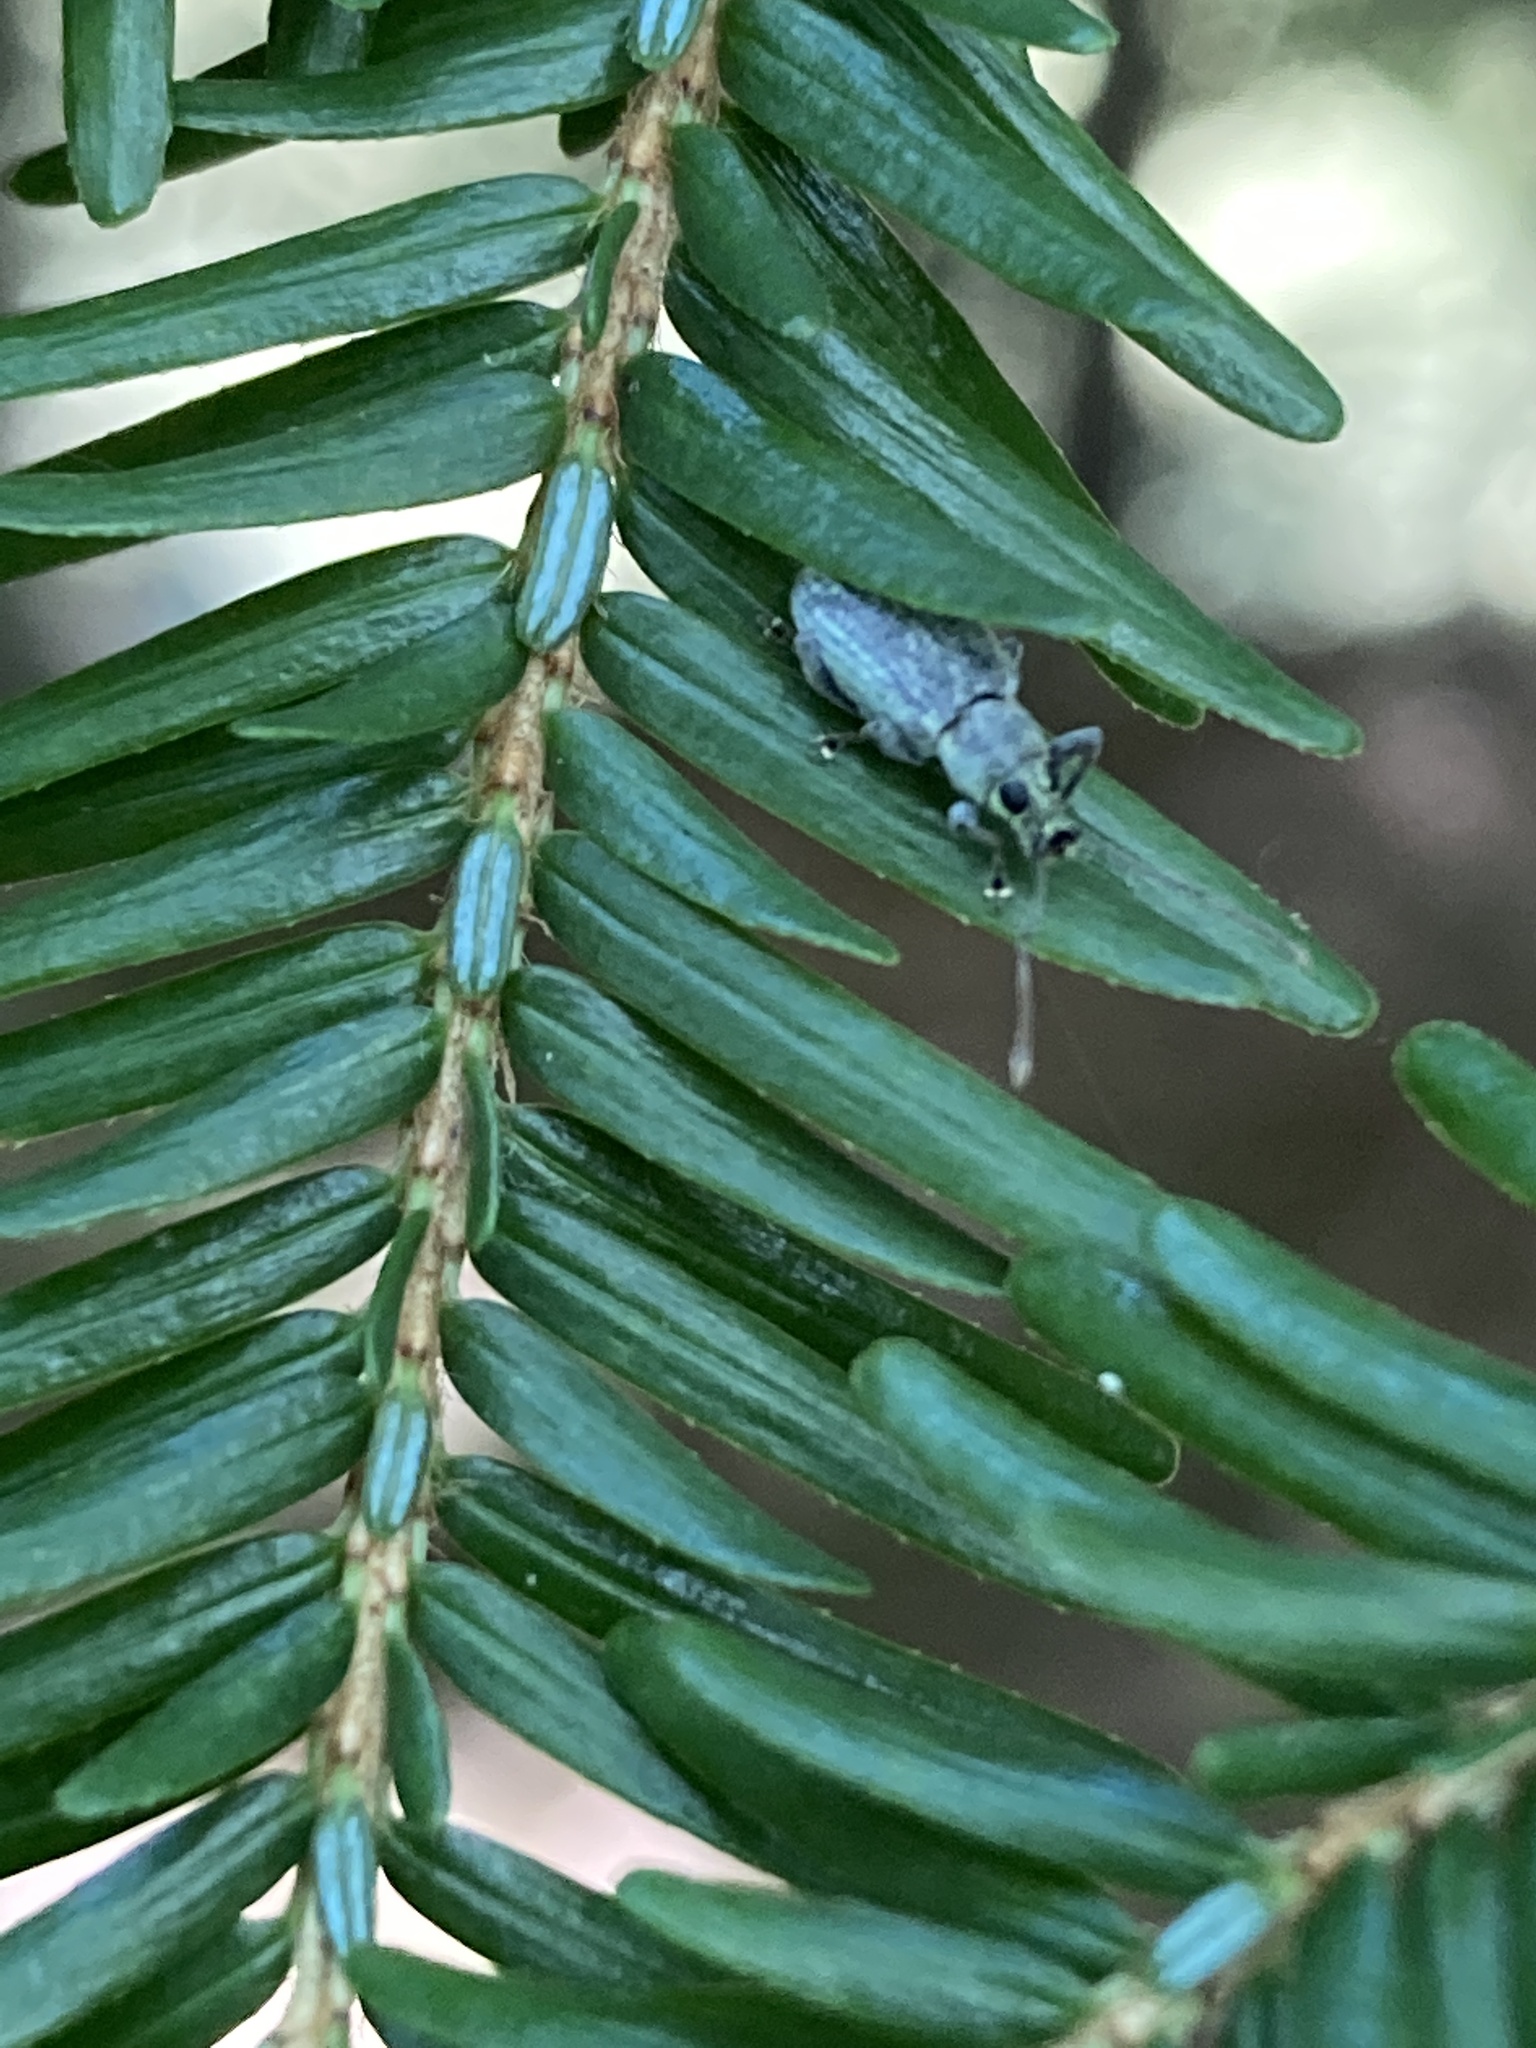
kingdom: Animalia
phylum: Arthropoda
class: Insecta
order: Coleoptera
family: Curculionidae
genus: Cyrtepistomus
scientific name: Cyrtepistomus castaneus
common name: Weevil
